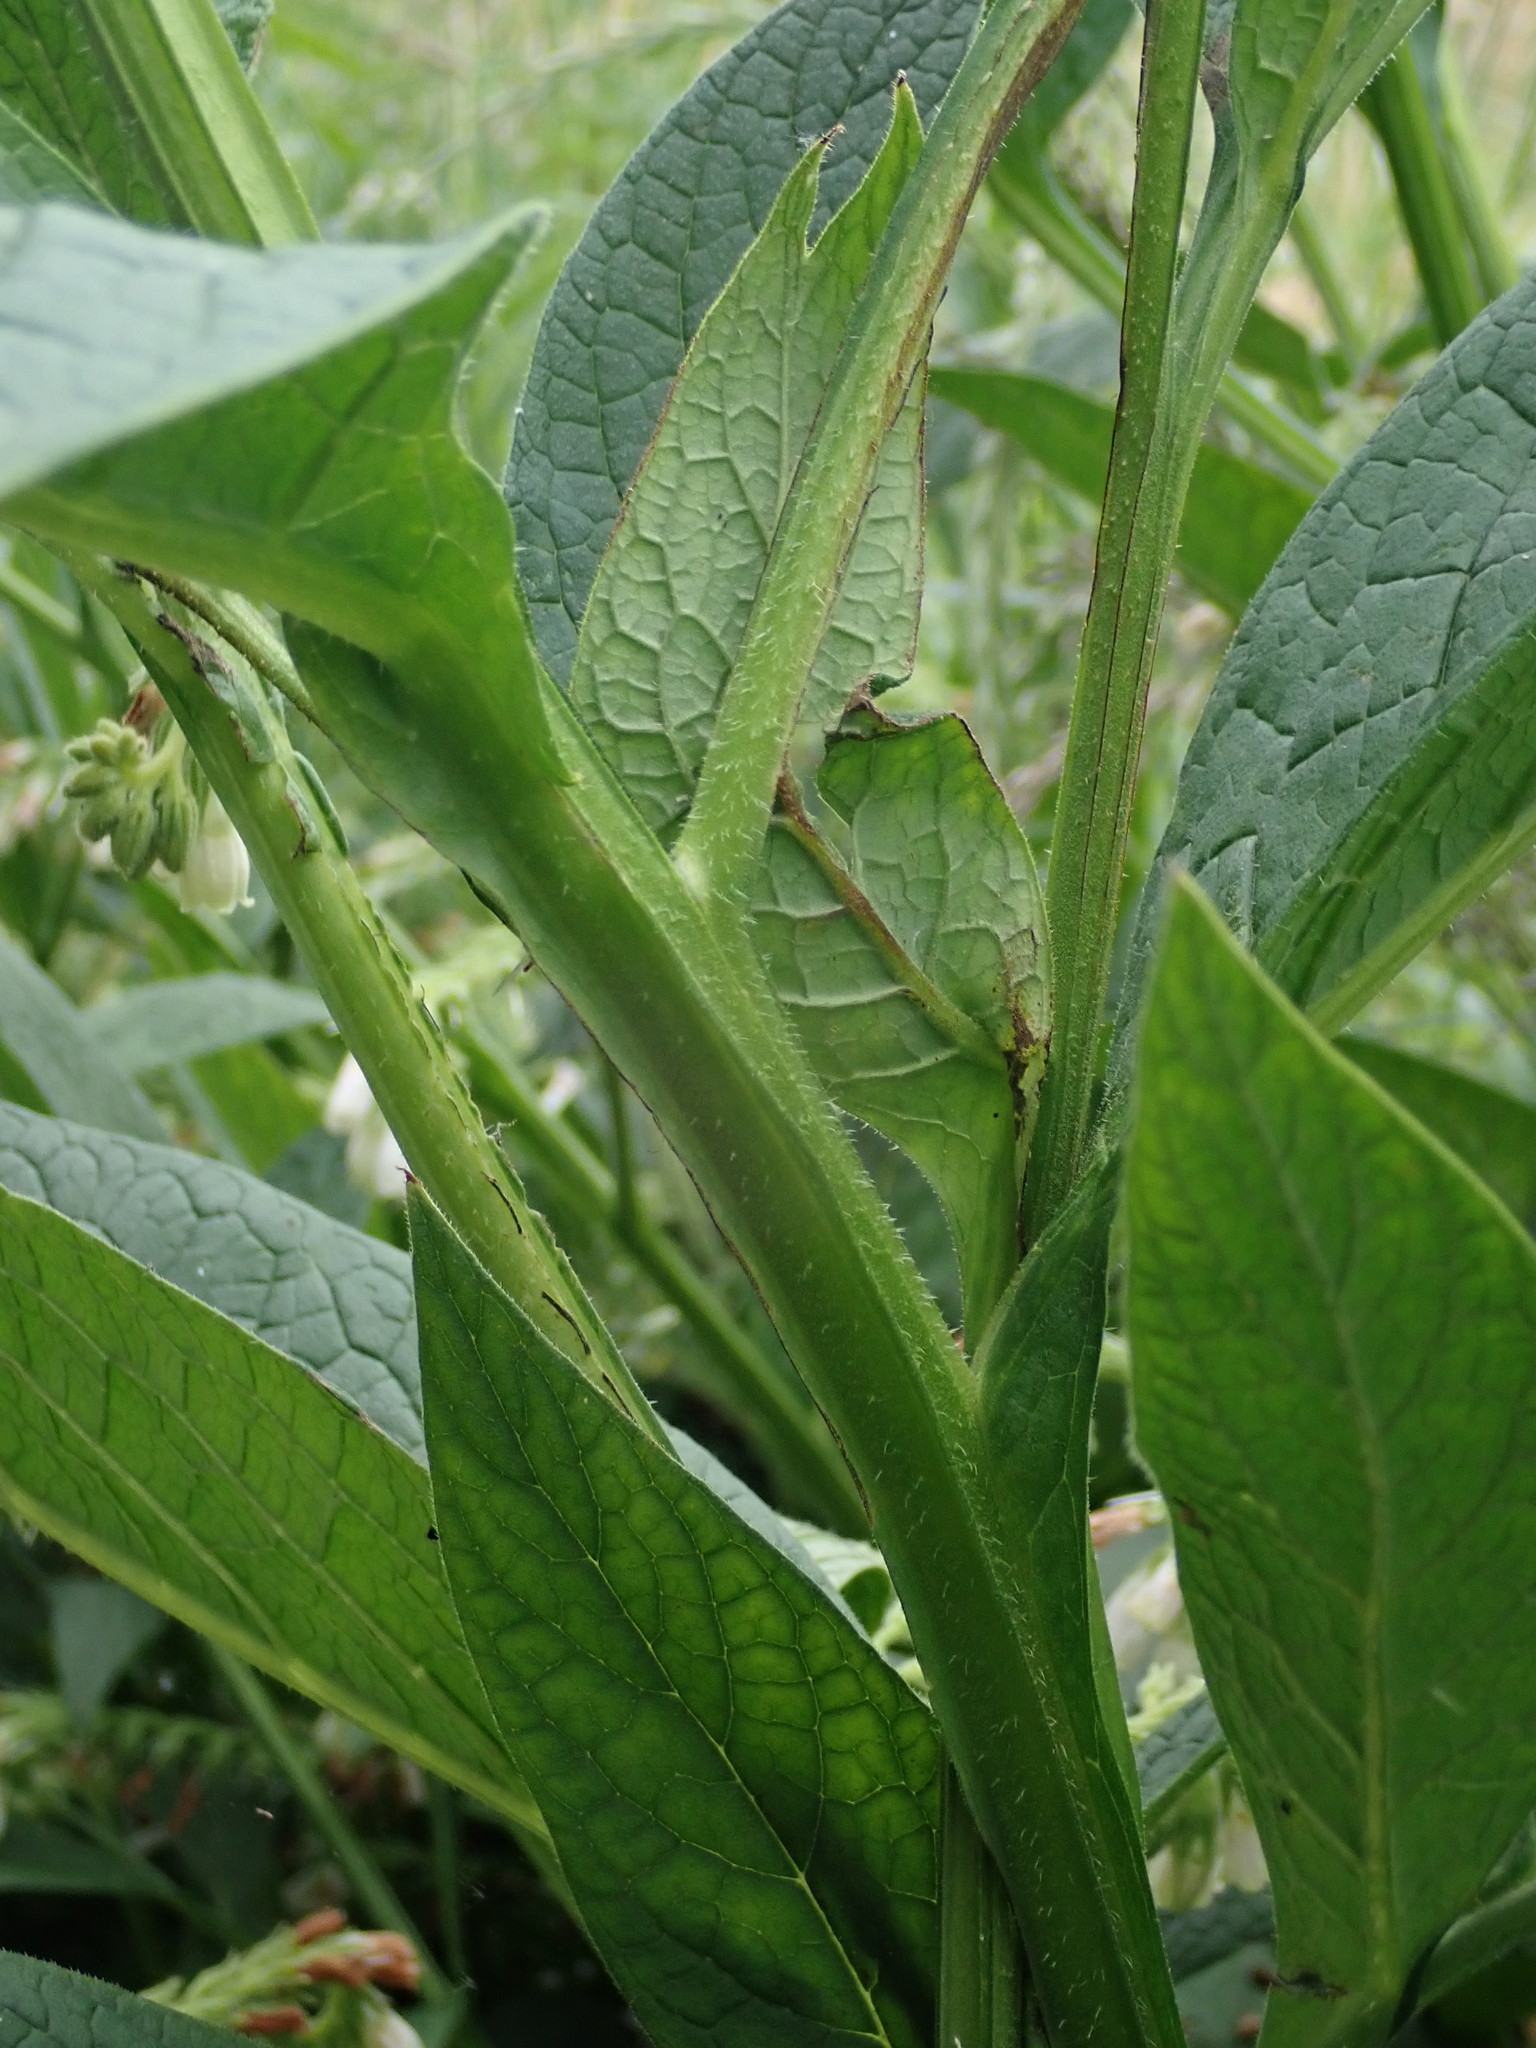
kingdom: Plantae
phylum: Tracheophyta
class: Magnoliopsida
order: Boraginales
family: Boraginaceae
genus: Symphytum
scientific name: Symphytum officinale
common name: Common comfrey
